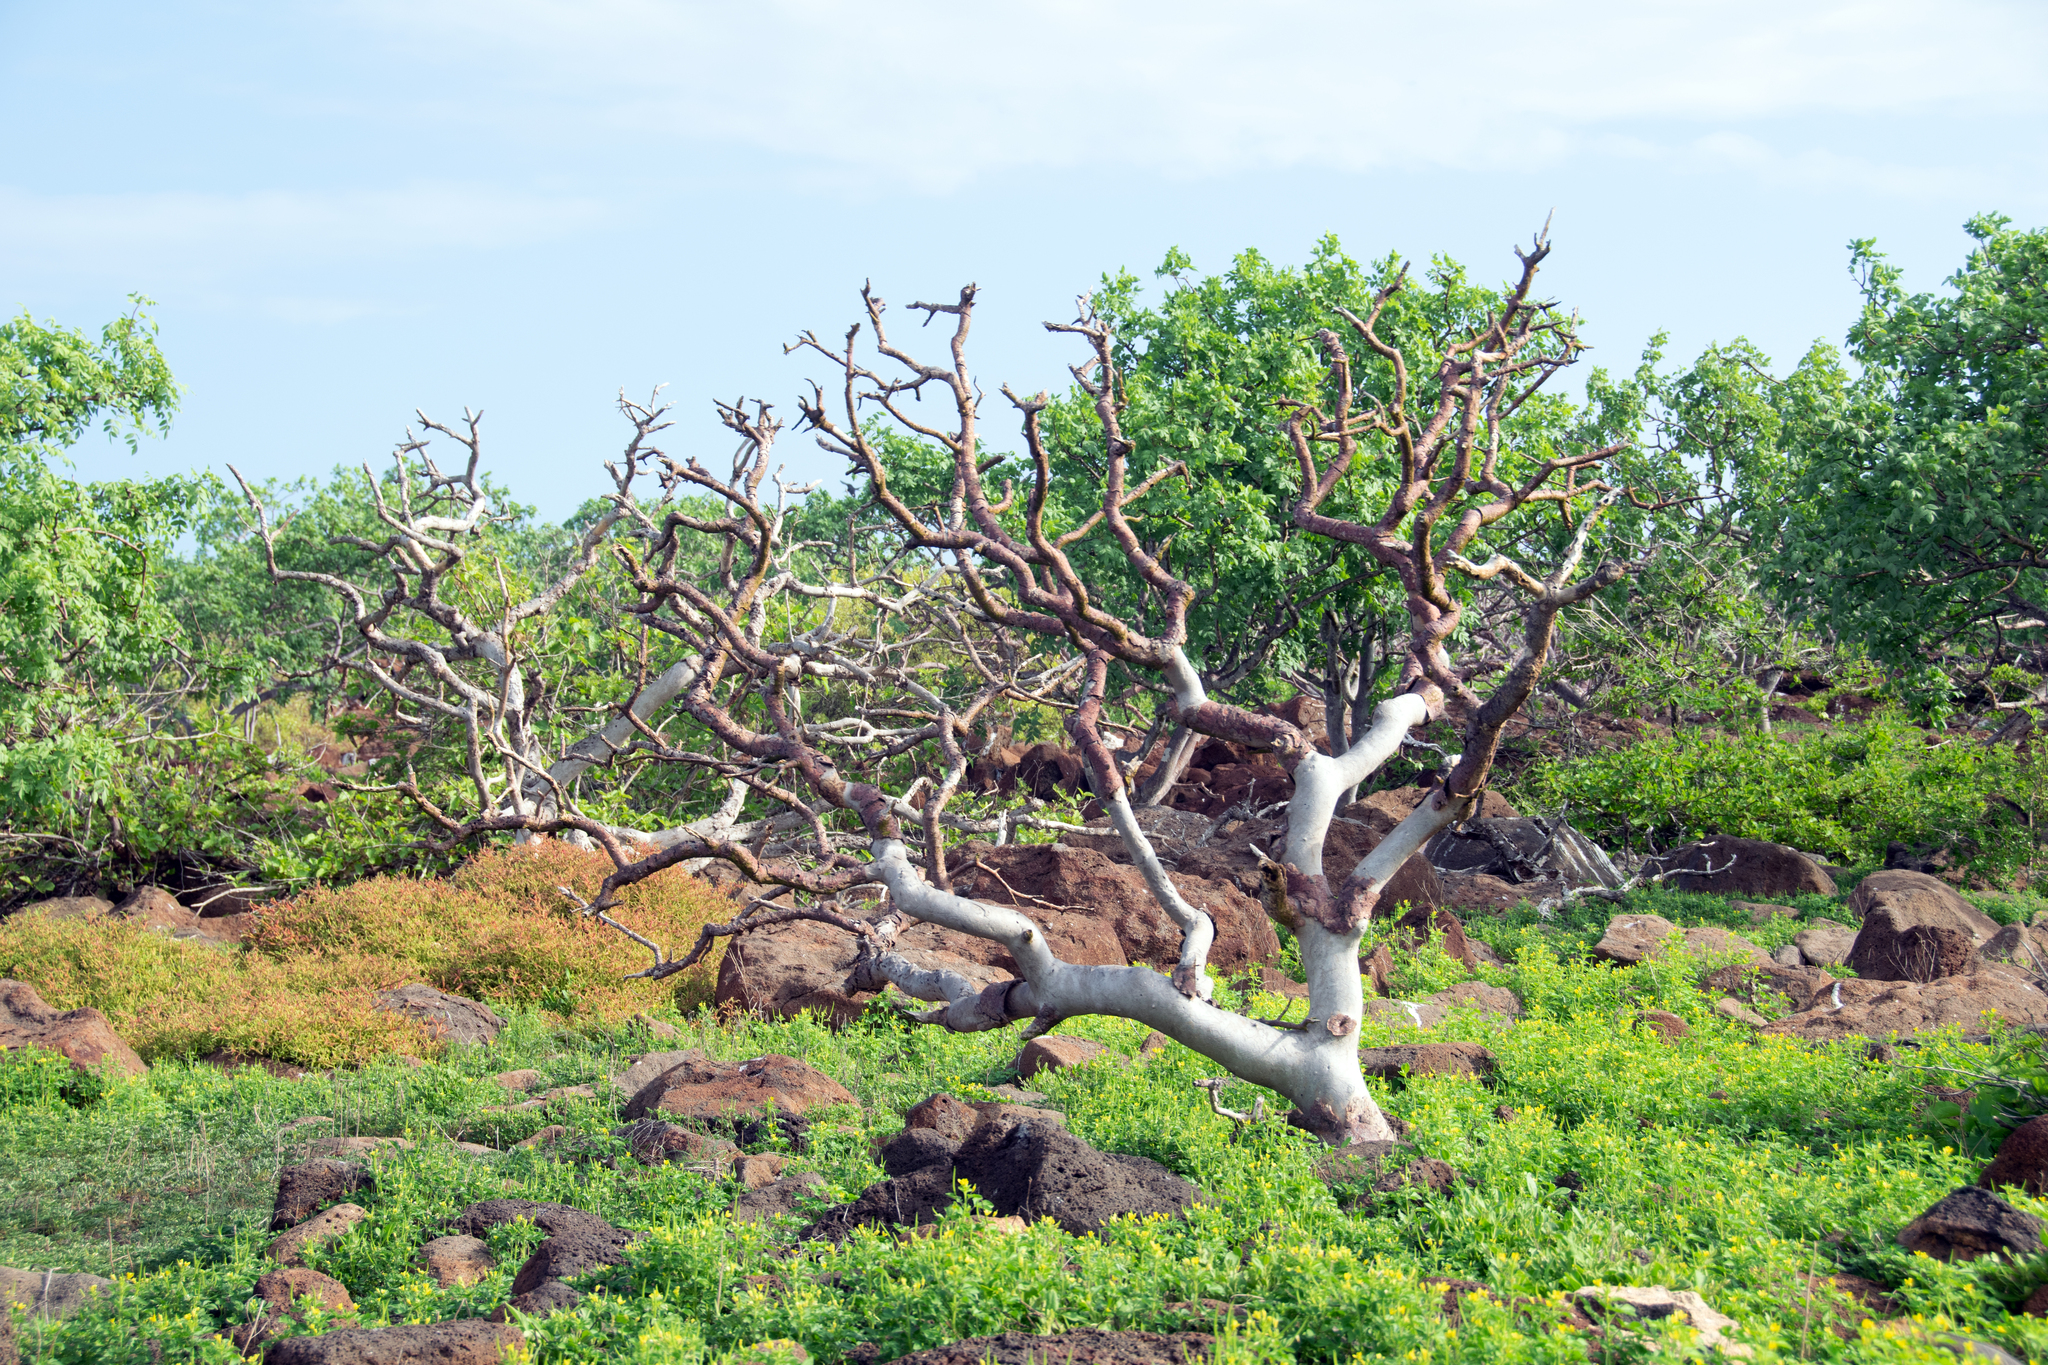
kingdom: Plantae
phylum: Tracheophyta
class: Magnoliopsida
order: Sapindales
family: Burseraceae
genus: Bursera
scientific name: Bursera graveolens
